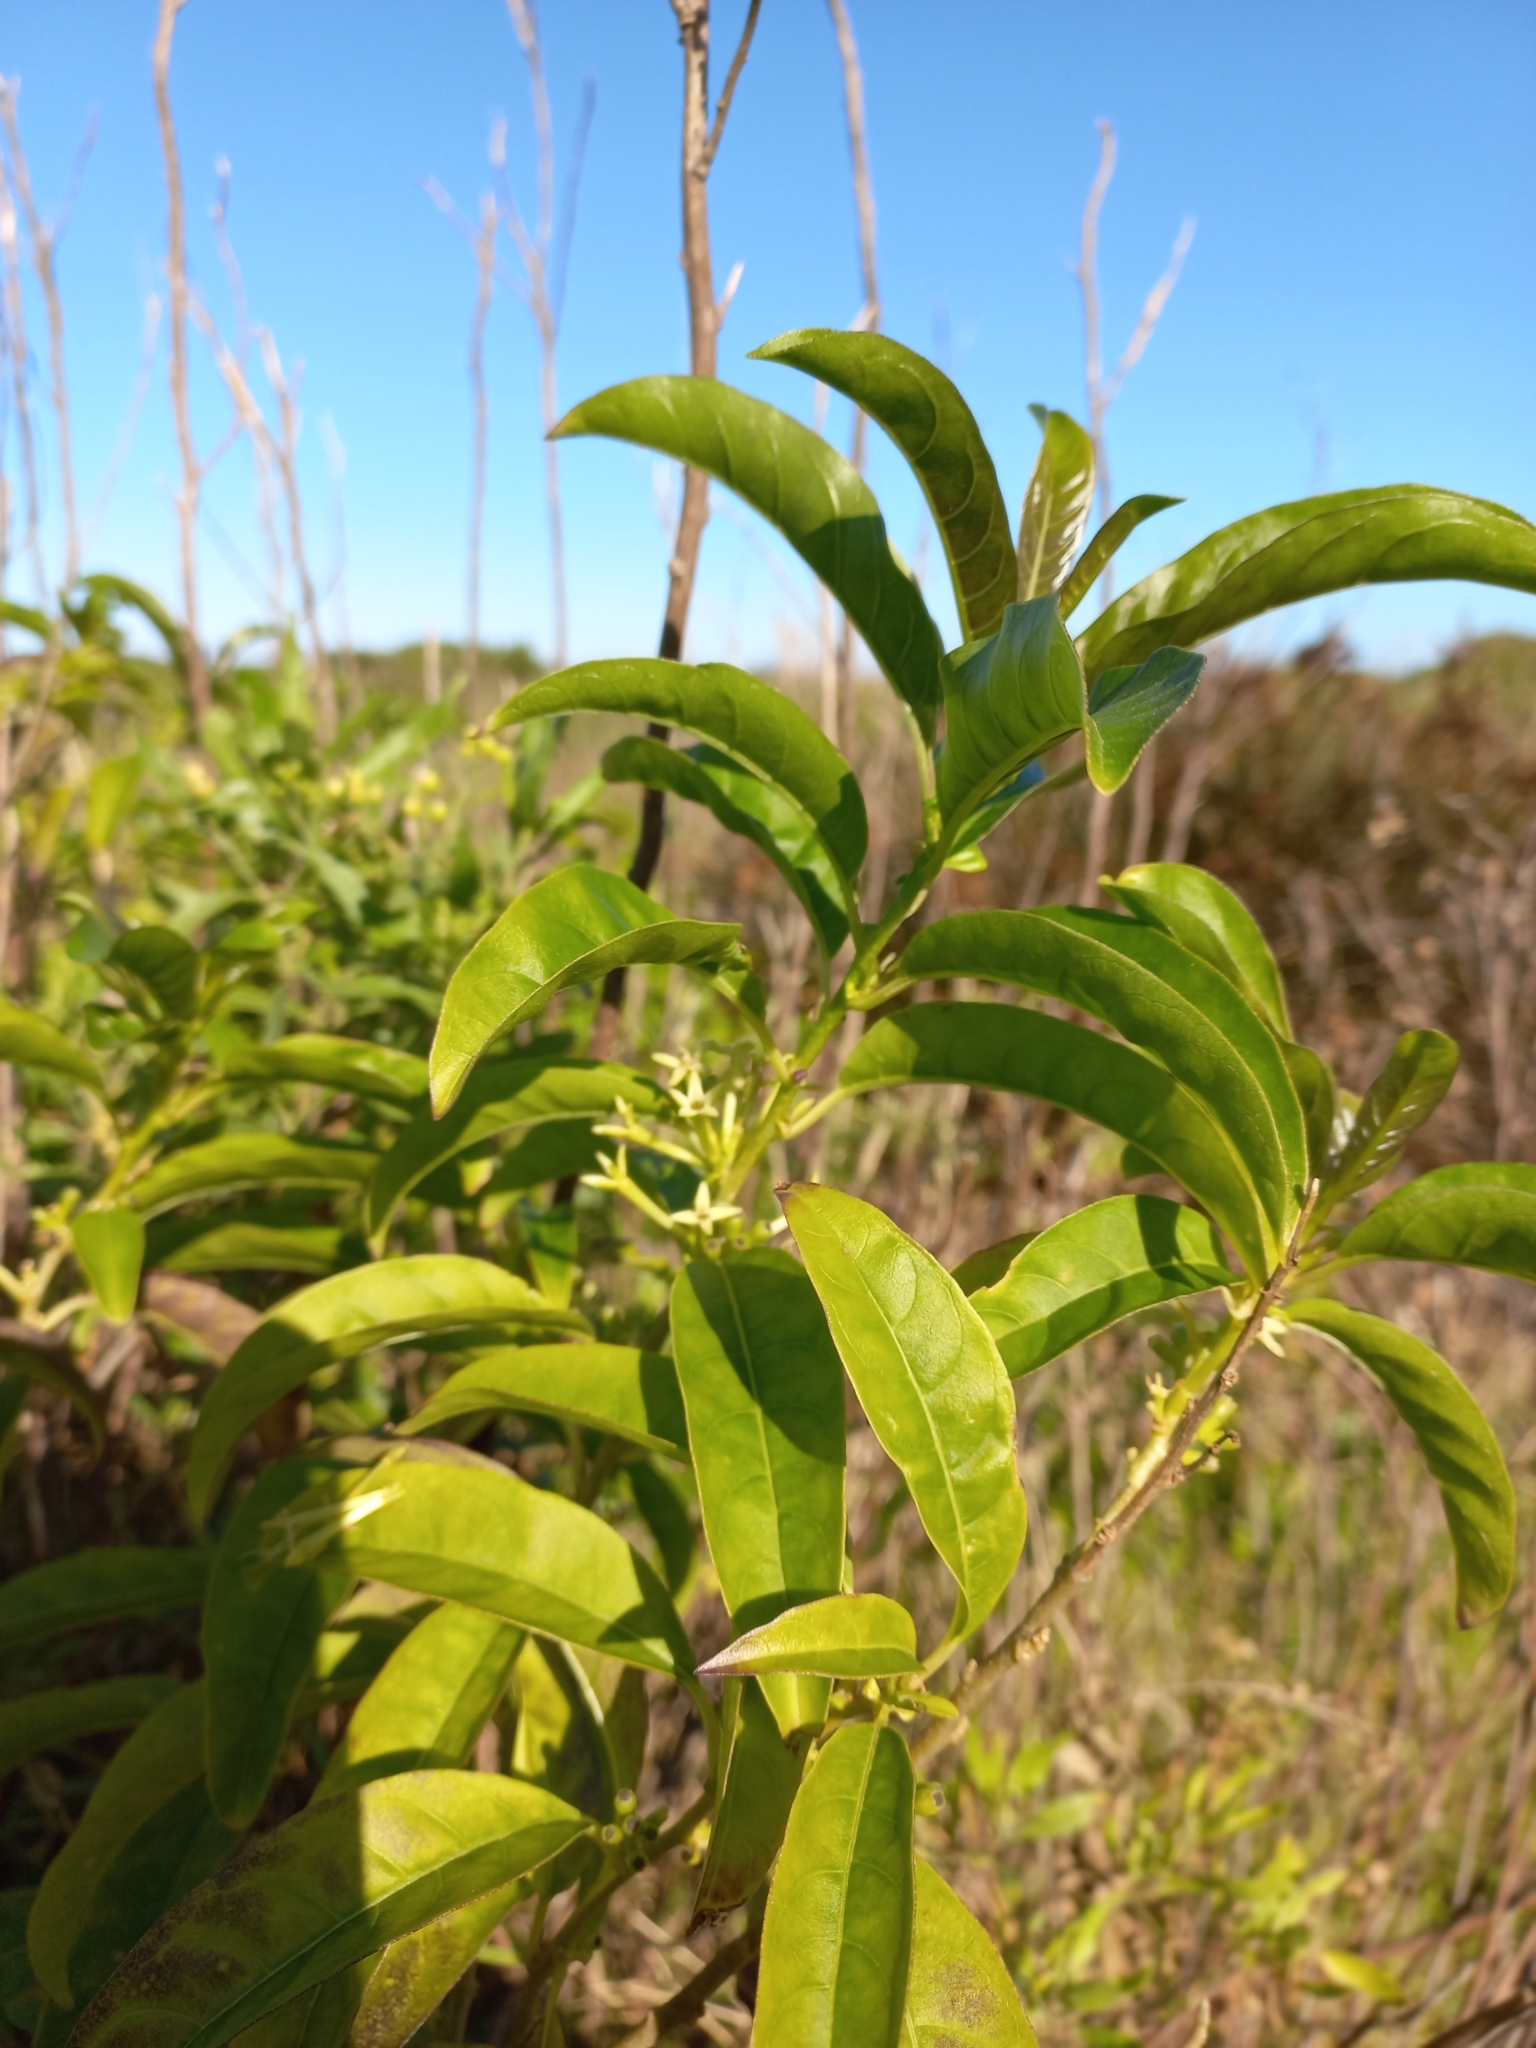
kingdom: Plantae
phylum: Tracheophyta
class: Magnoliopsida
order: Solanales
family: Solanaceae
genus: Cestrum
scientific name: Cestrum laevigatum
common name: Inkberry
